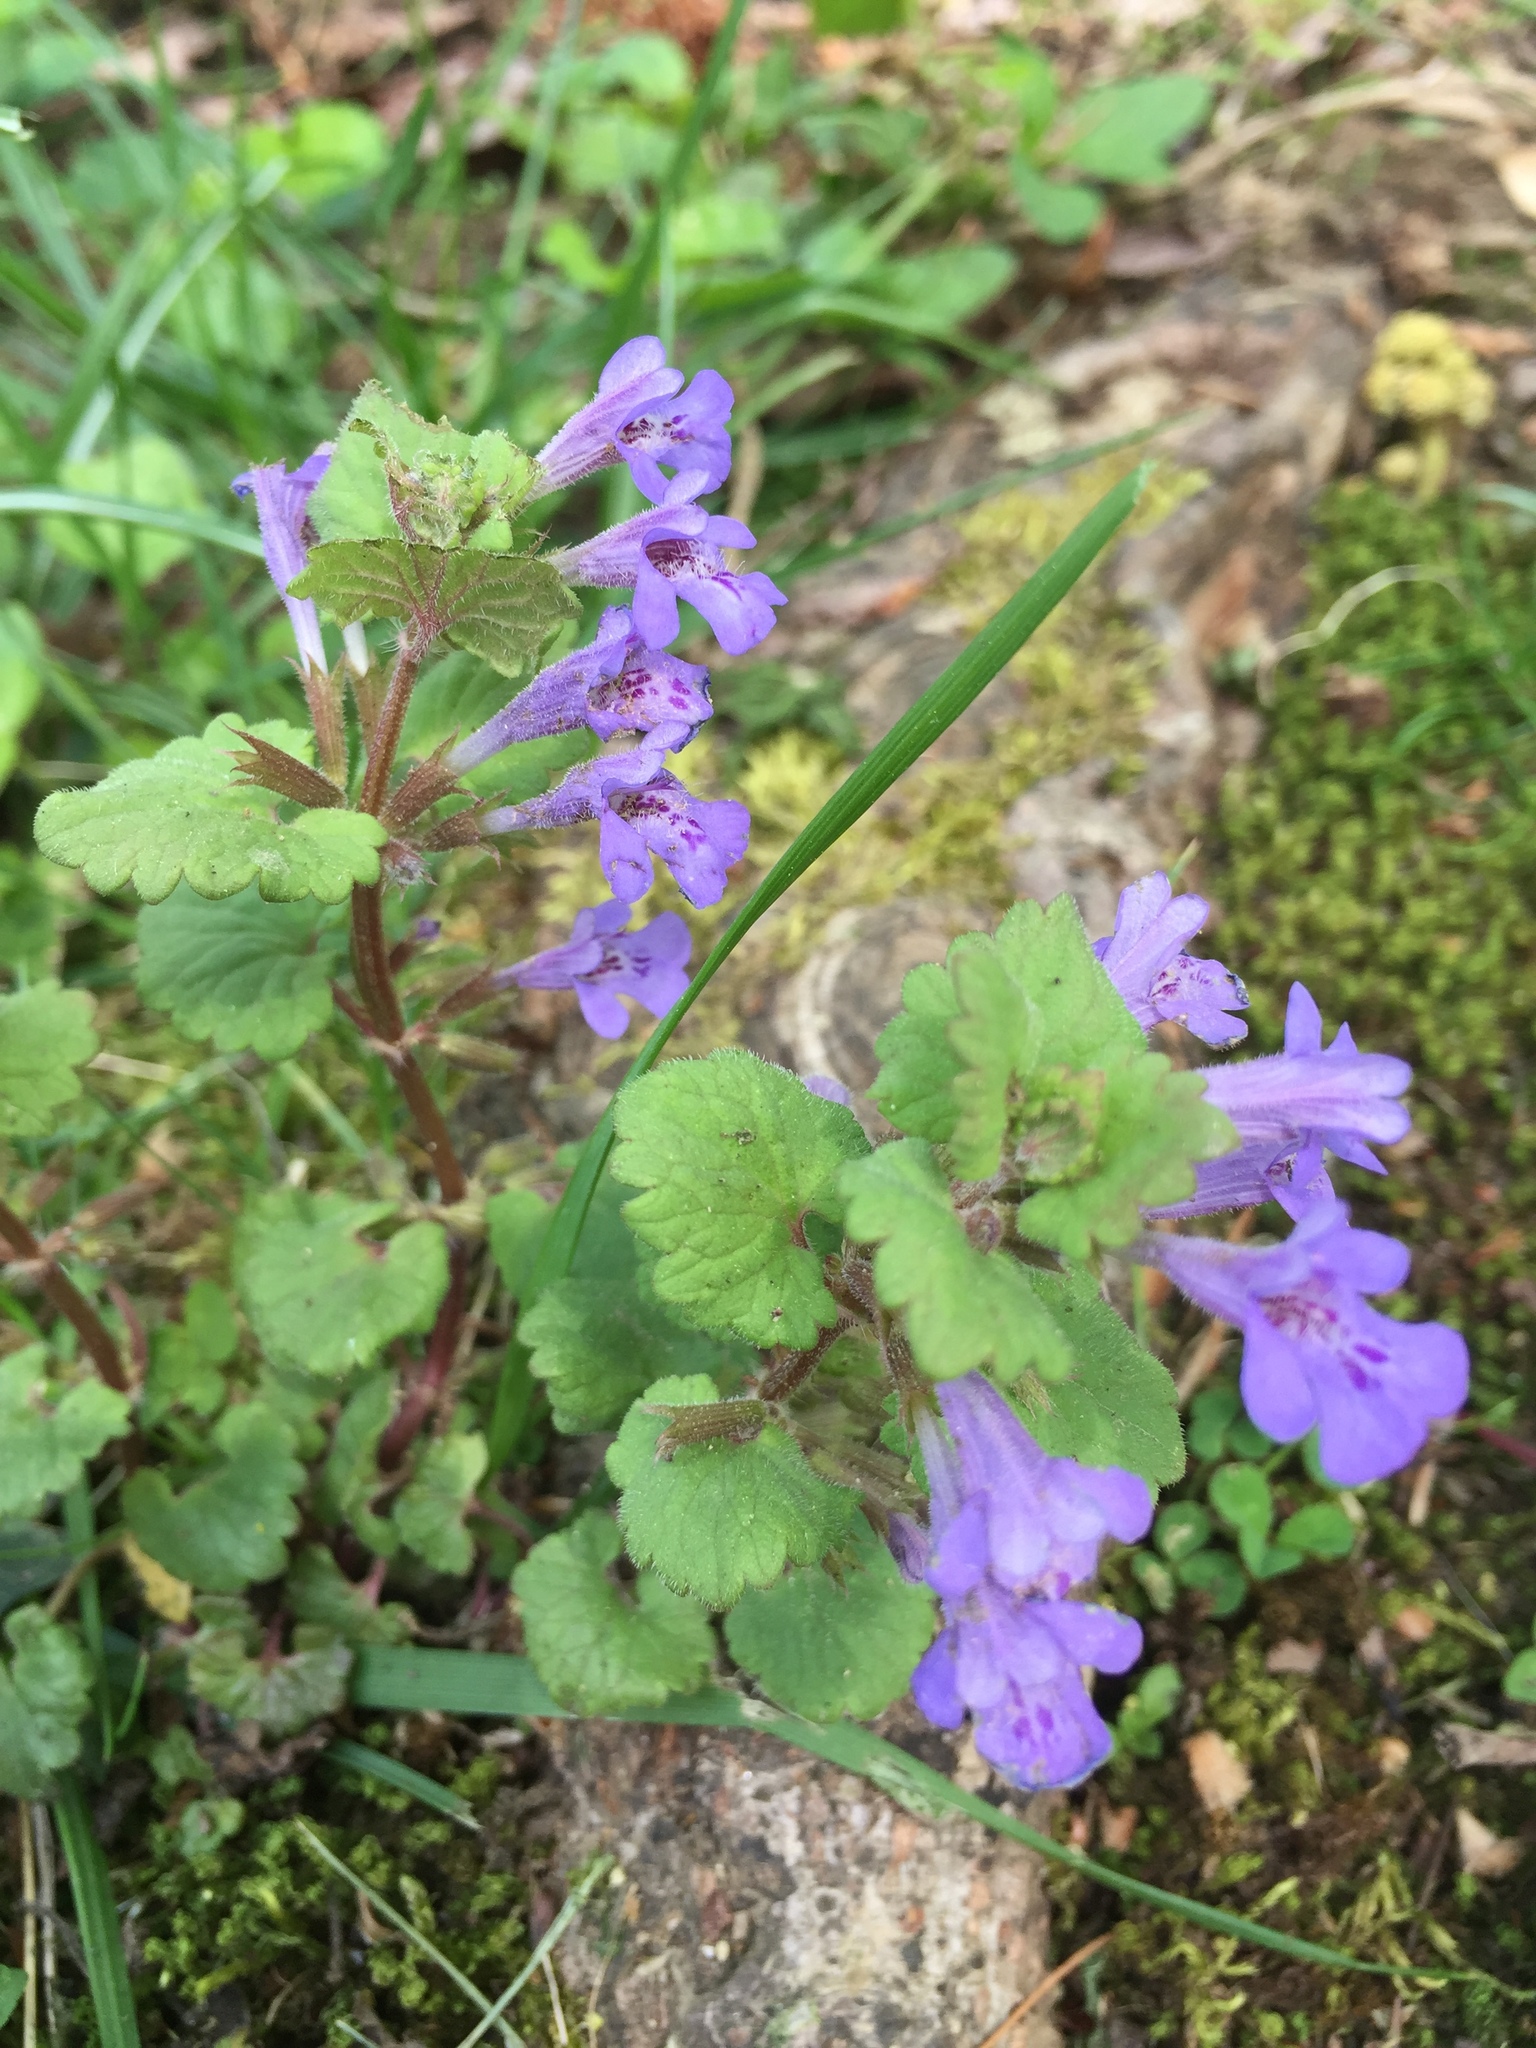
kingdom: Plantae
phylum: Tracheophyta
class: Magnoliopsida
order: Lamiales
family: Lamiaceae
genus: Glechoma
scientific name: Glechoma hederacea
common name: Ground ivy
